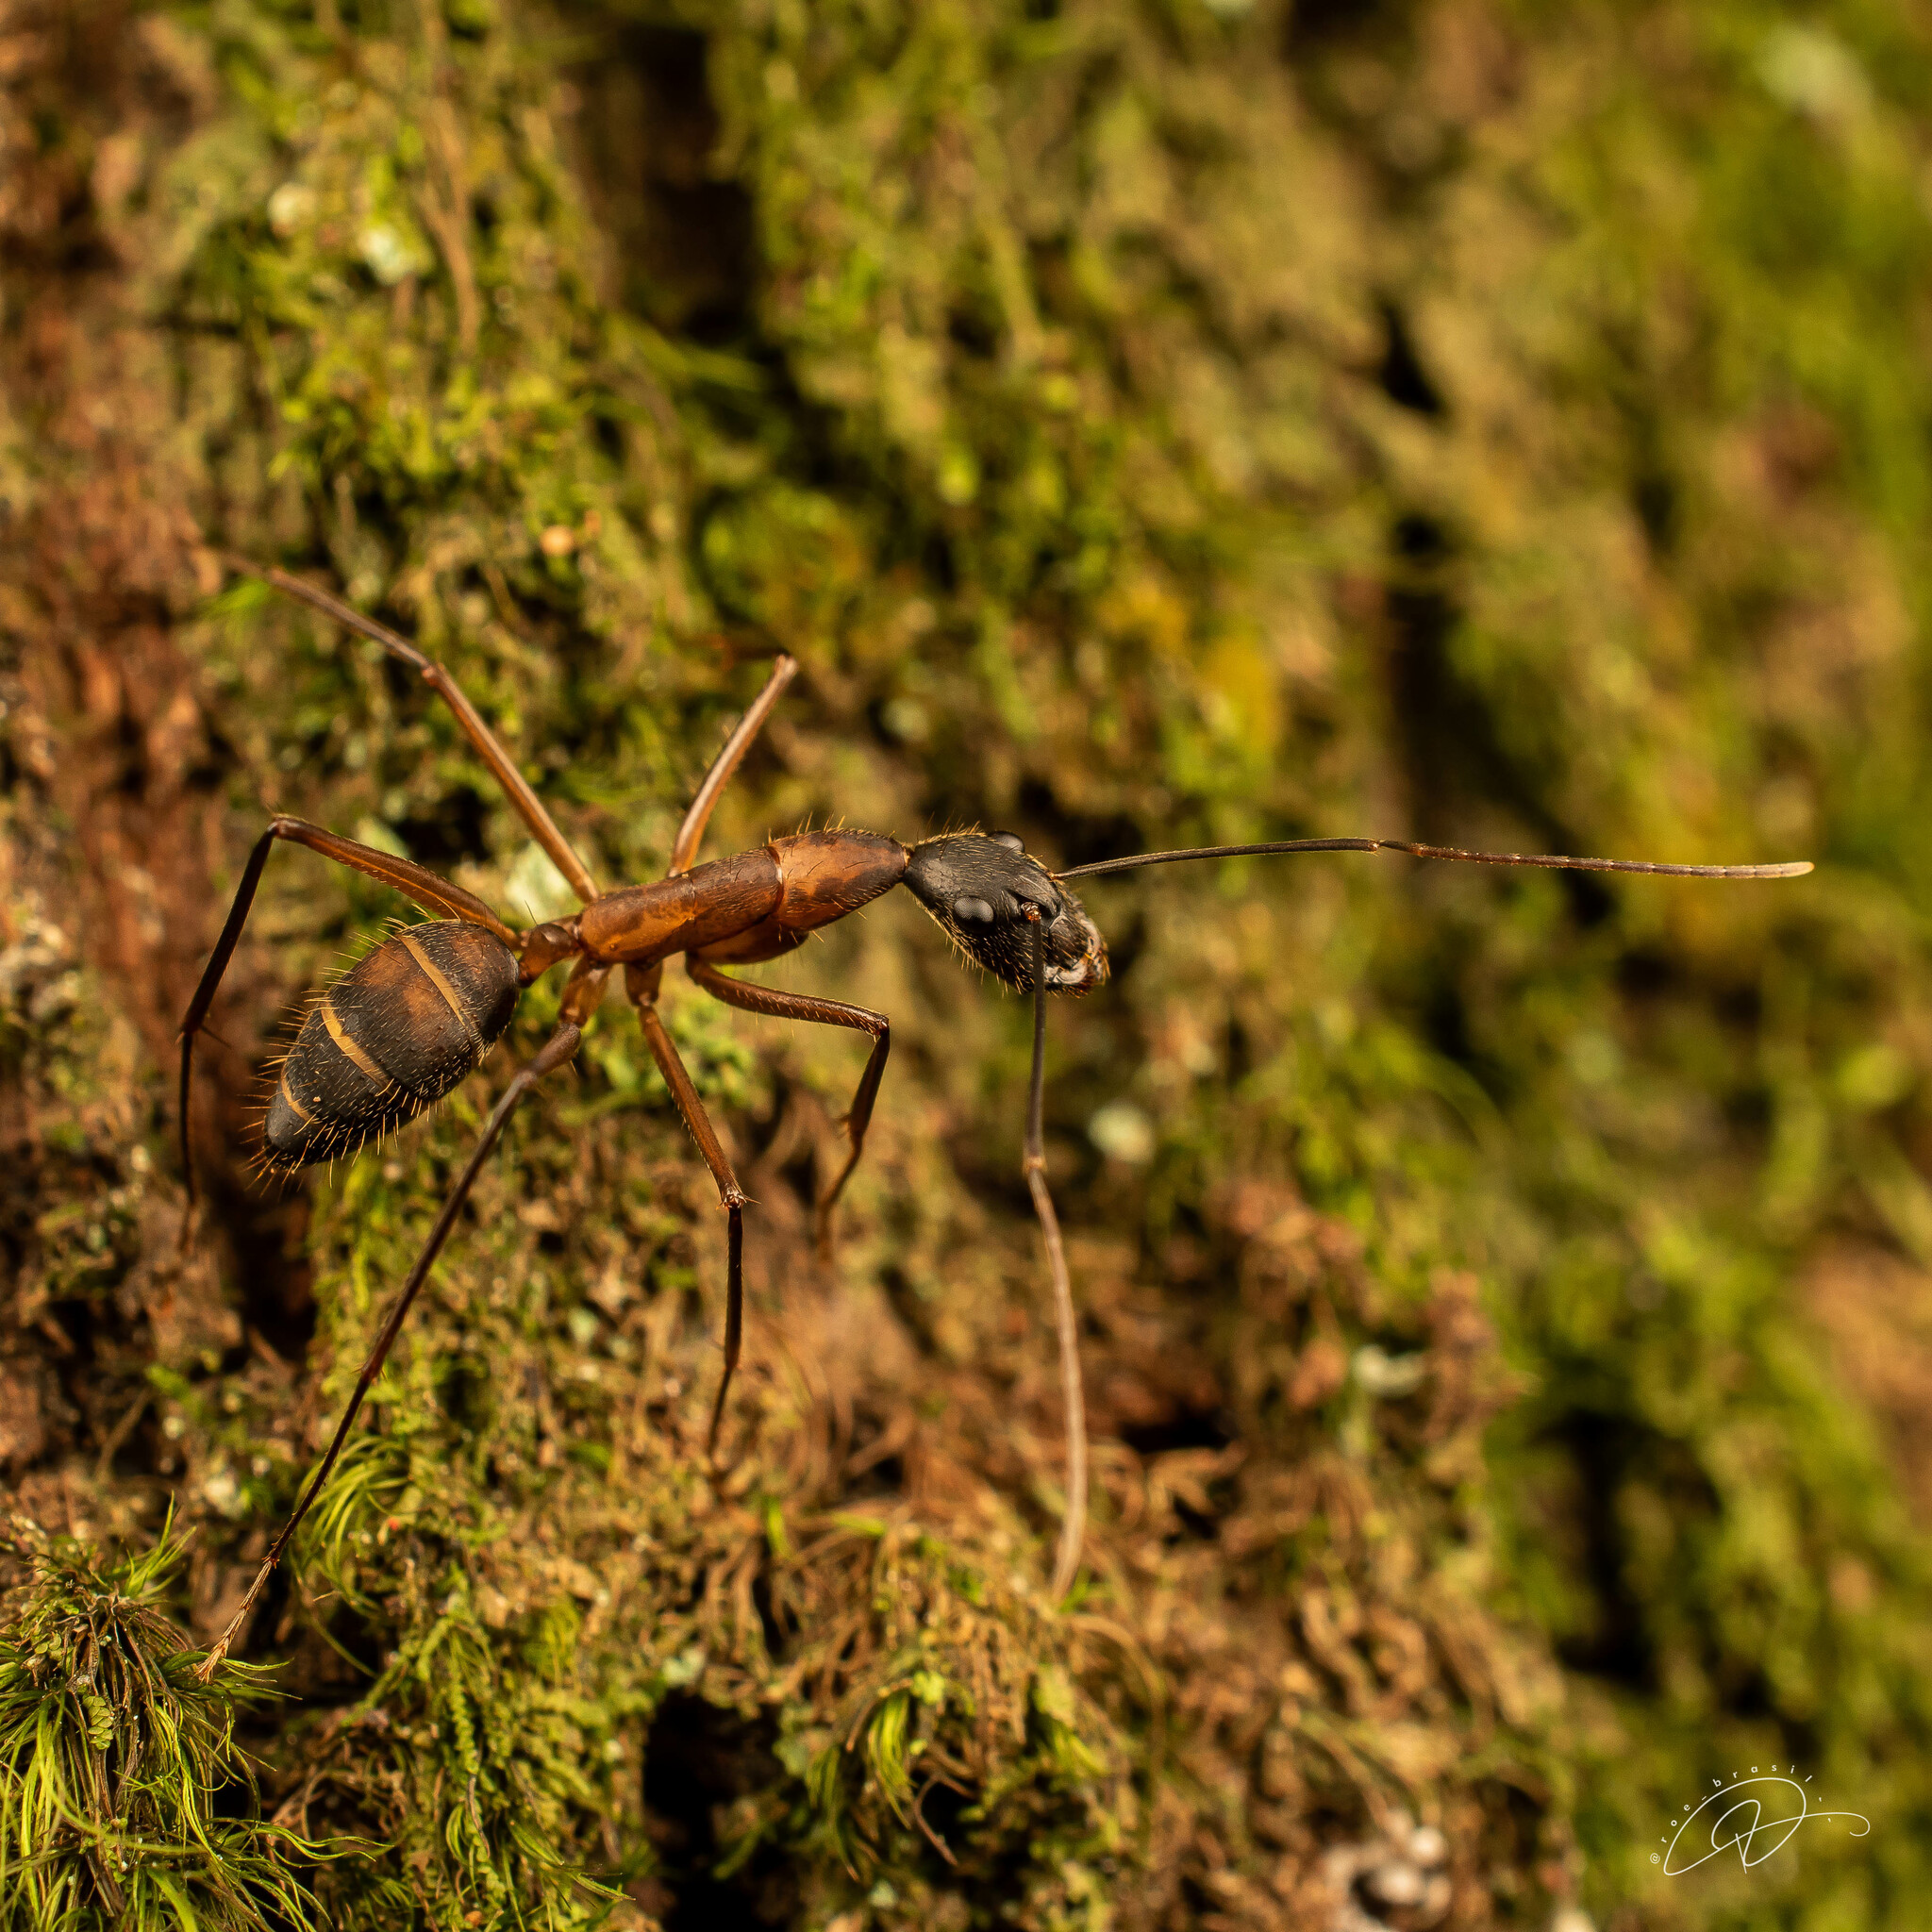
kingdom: Animalia
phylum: Arthropoda
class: Insecta
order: Hymenoptera
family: Formicidae
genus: Camponotus
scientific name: Camponotus lespesii
